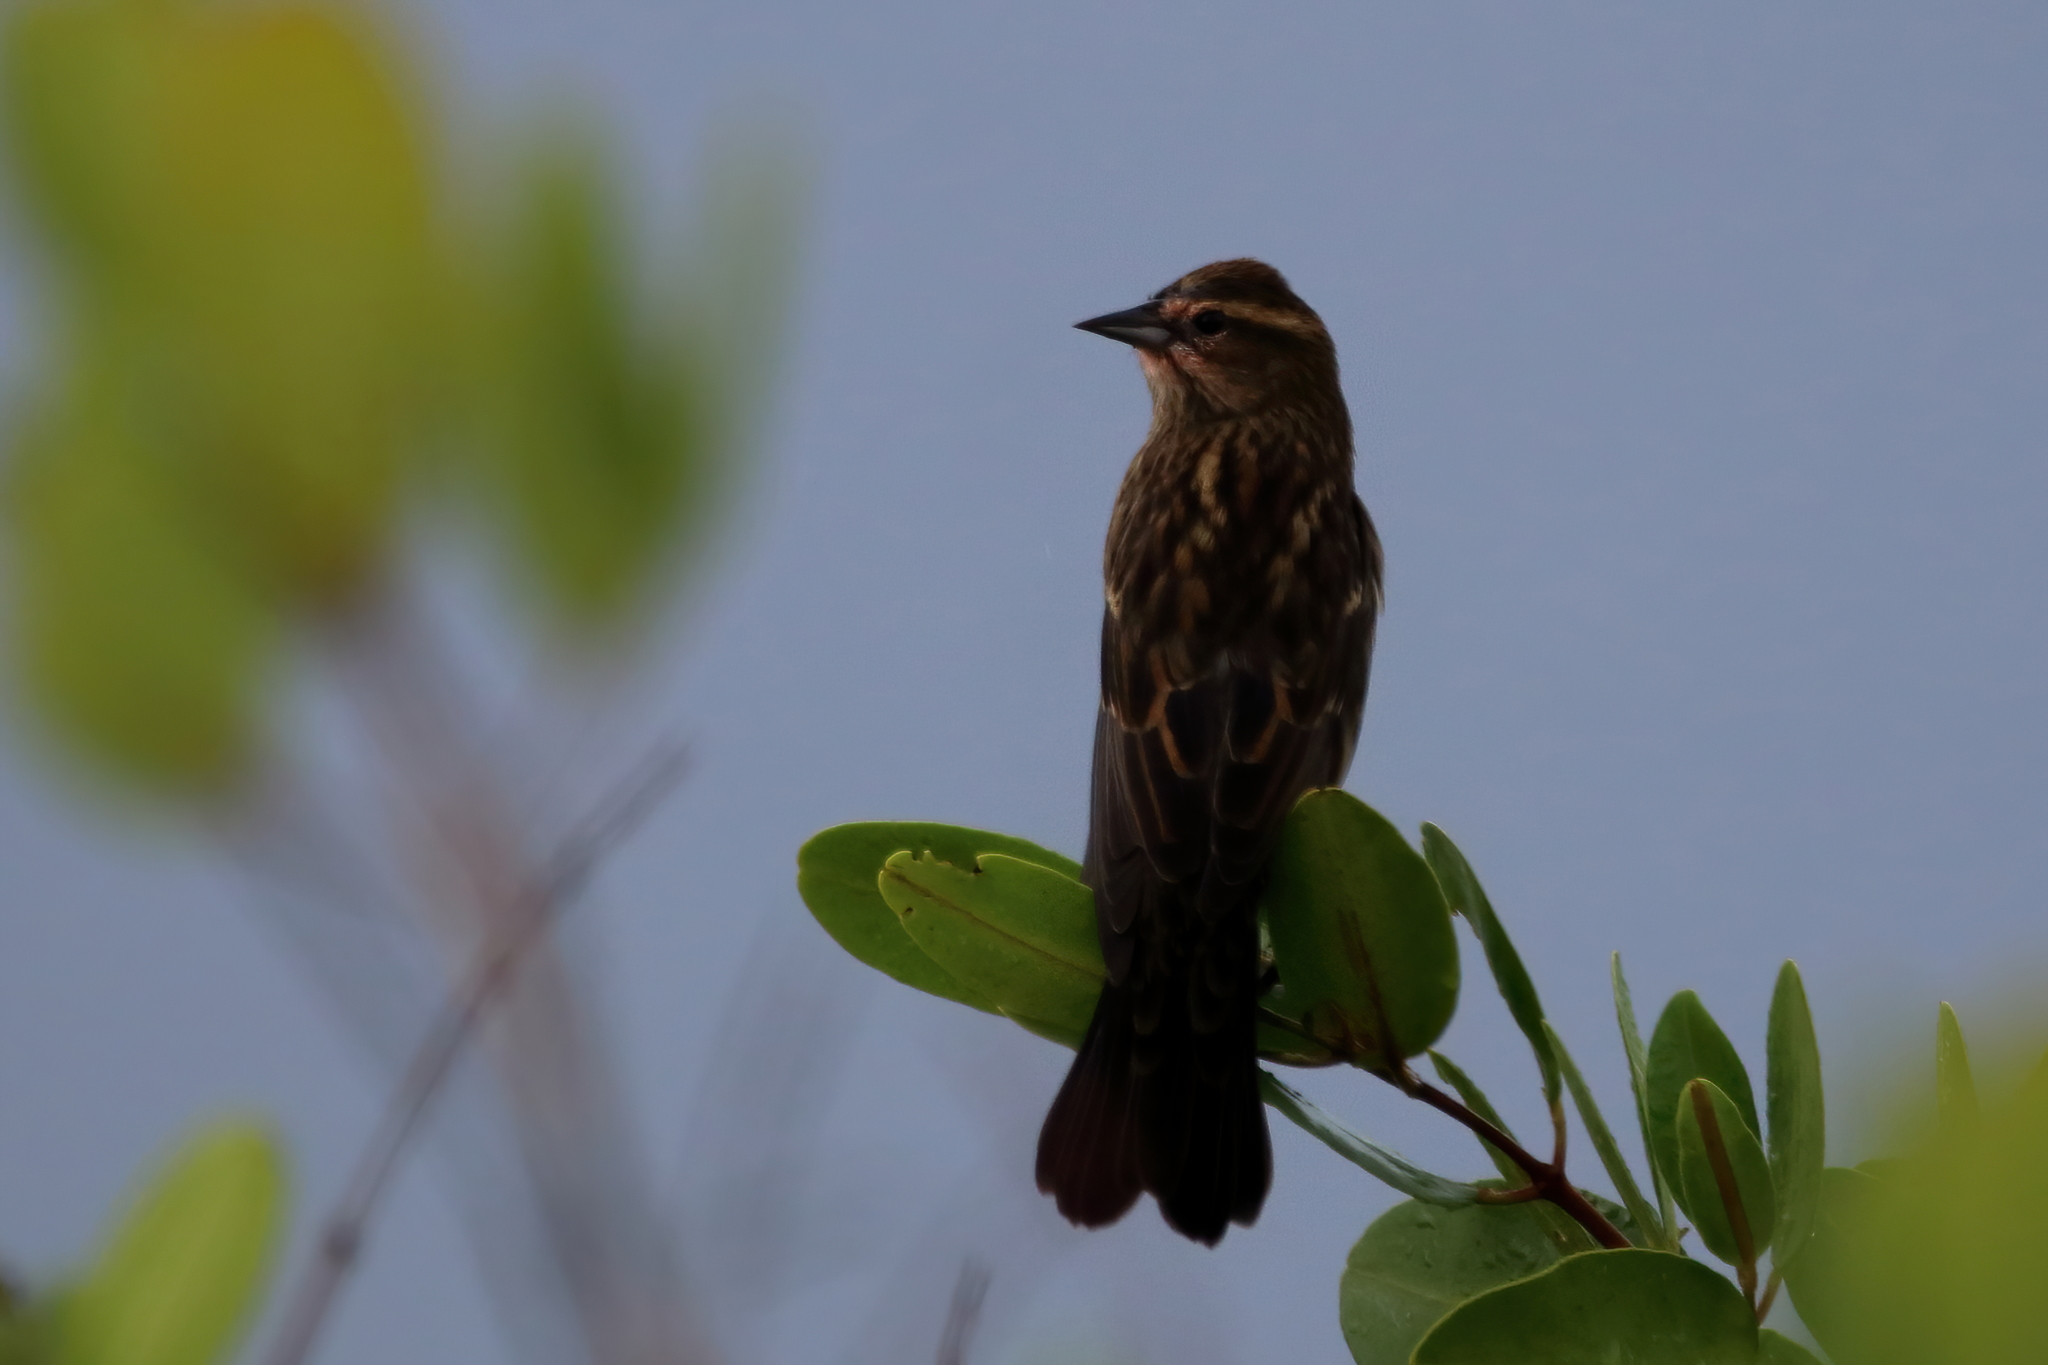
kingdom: Animalia
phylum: Chordata
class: Aves
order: Passeriformes
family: Icteridae
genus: Agelaius
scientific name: Agelaius phoeniceus
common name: Red-winged blackbird
